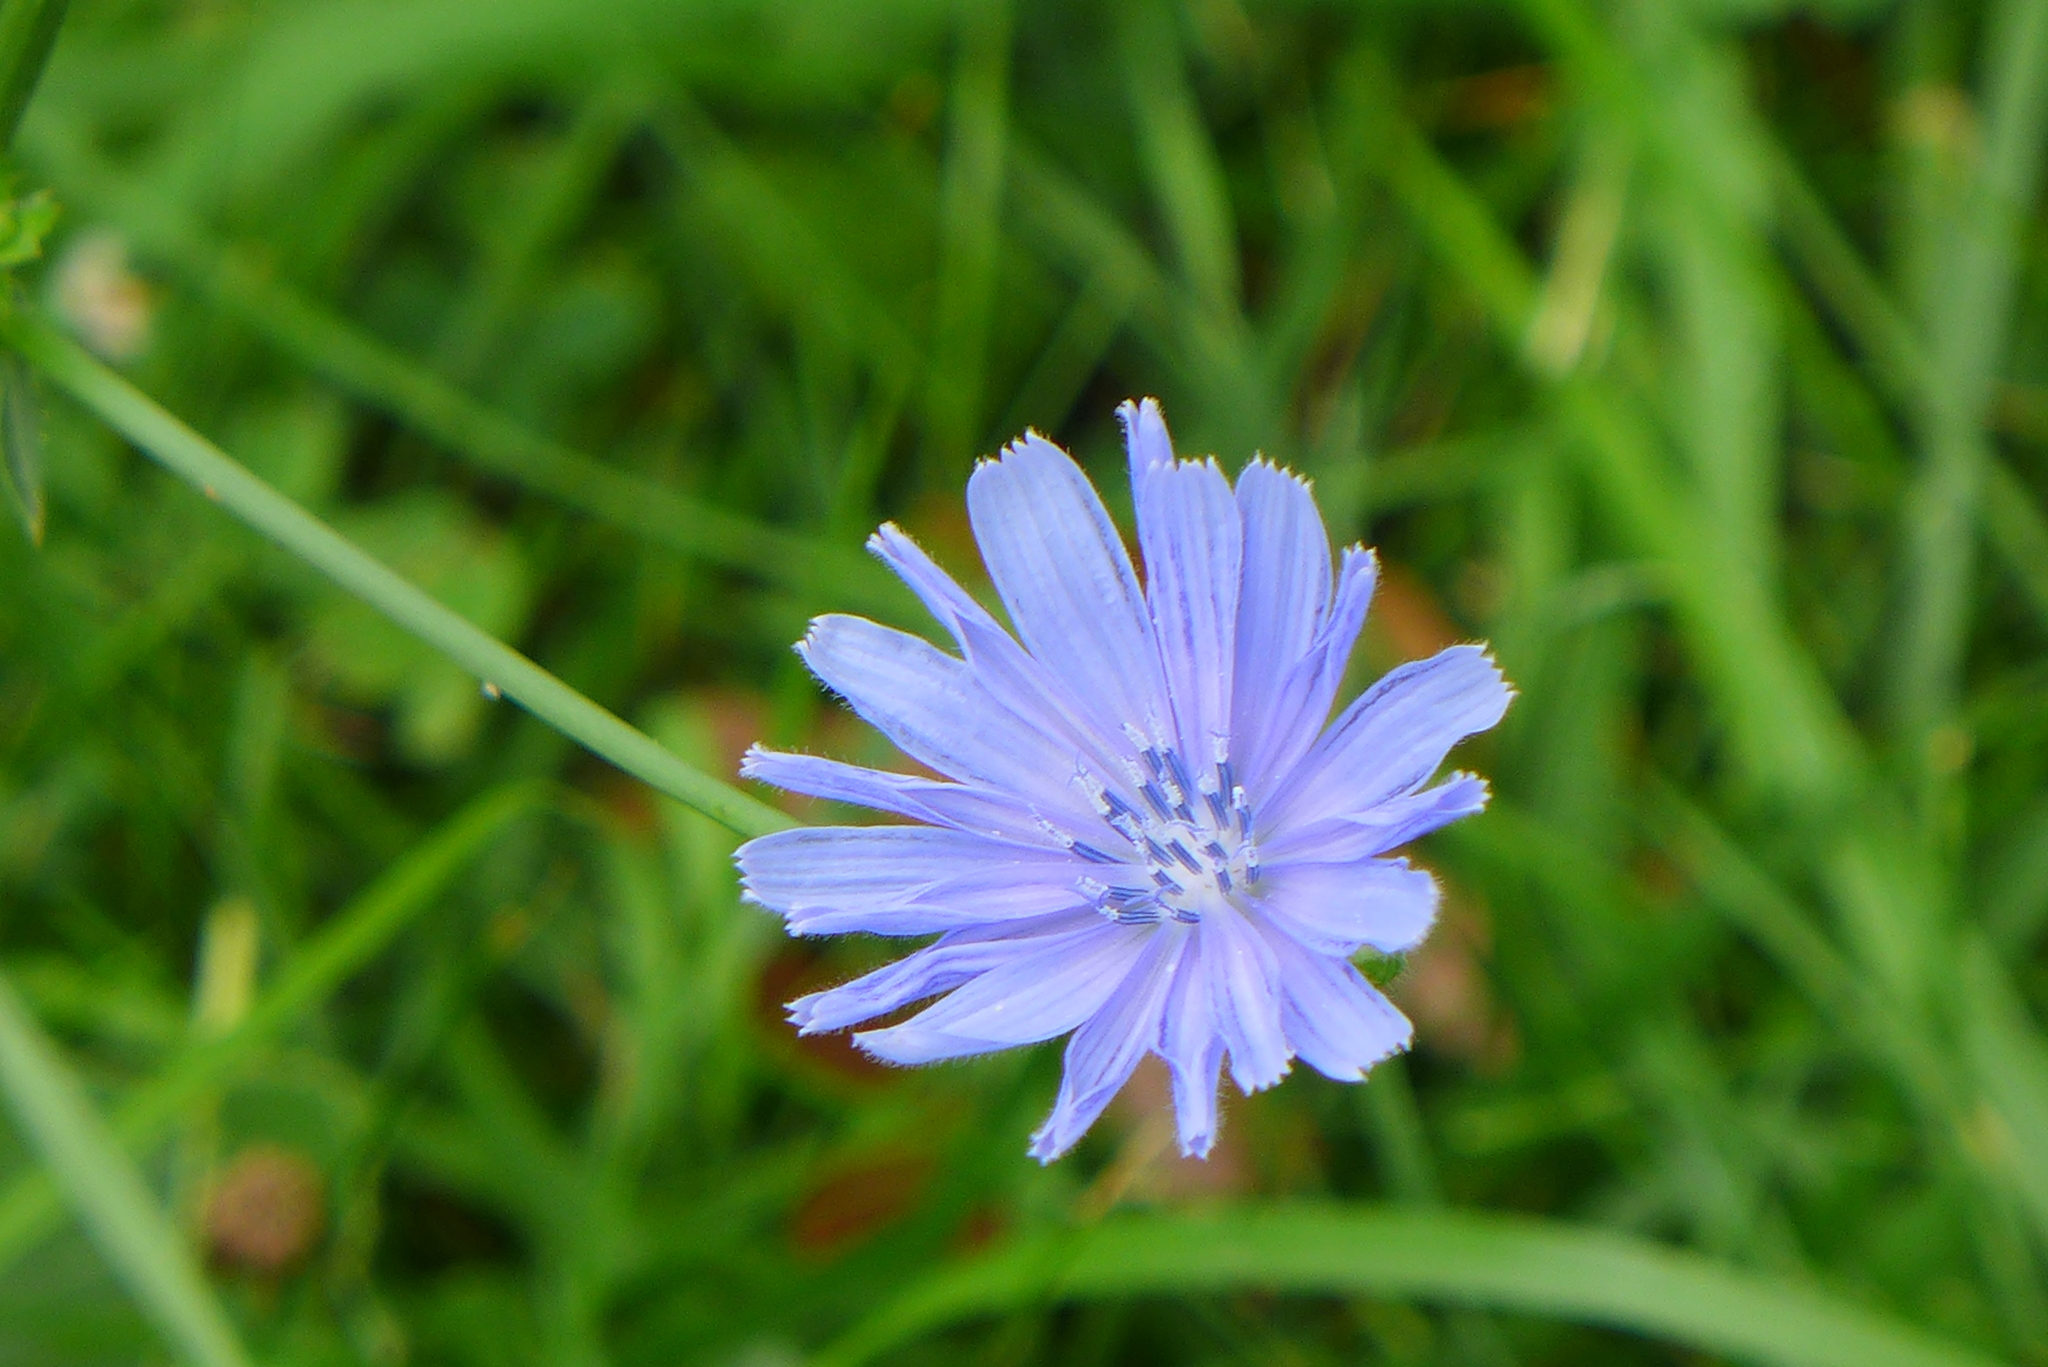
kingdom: Plantae
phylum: Tracheophyta
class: Magnoliopsida
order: Asterales
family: Asteraceae
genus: Cichorium
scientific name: Cichorium intybus
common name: Chicory
